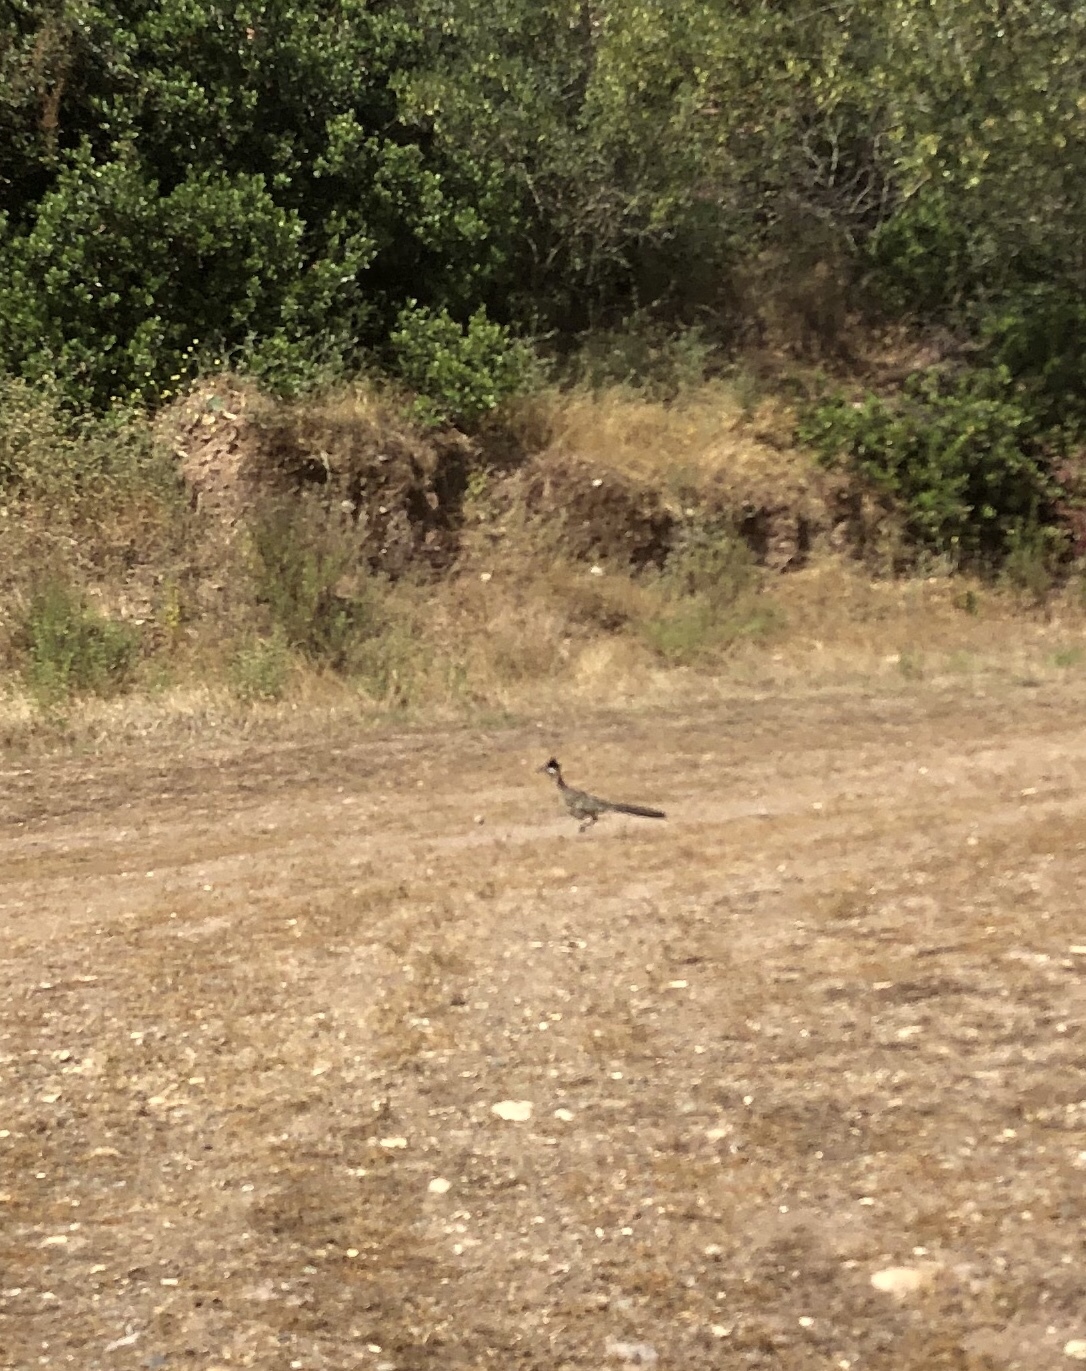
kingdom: Animalia
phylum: Chordata
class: Aves
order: Cuculiformes
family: Cuculidae
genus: Geococcyx
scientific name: Geococcyx californianus
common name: Greater roadrunner
